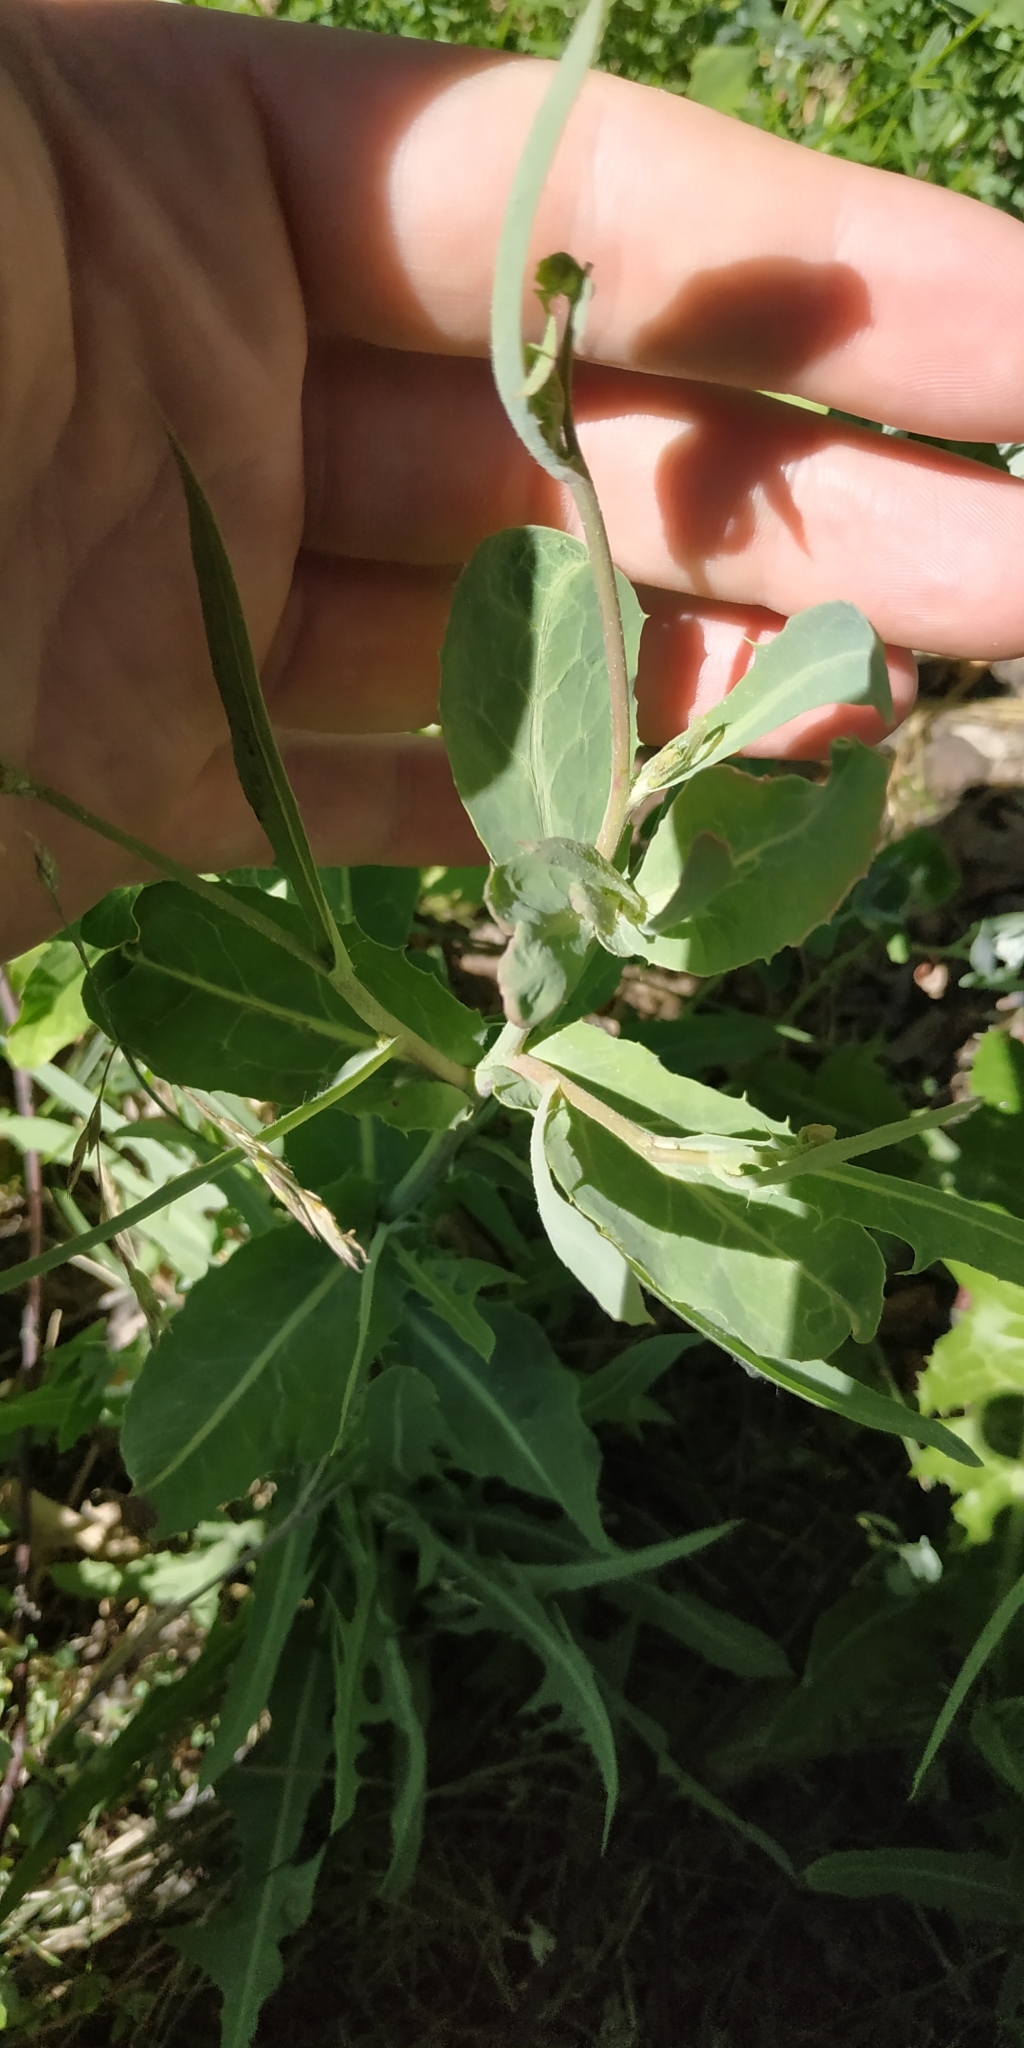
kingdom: Plantae
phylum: Tracheophyta
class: Magnoliopsida
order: Asterales
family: Asteraceae
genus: Lactuca
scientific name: Lactuca tatarica
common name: Blue lettuce
